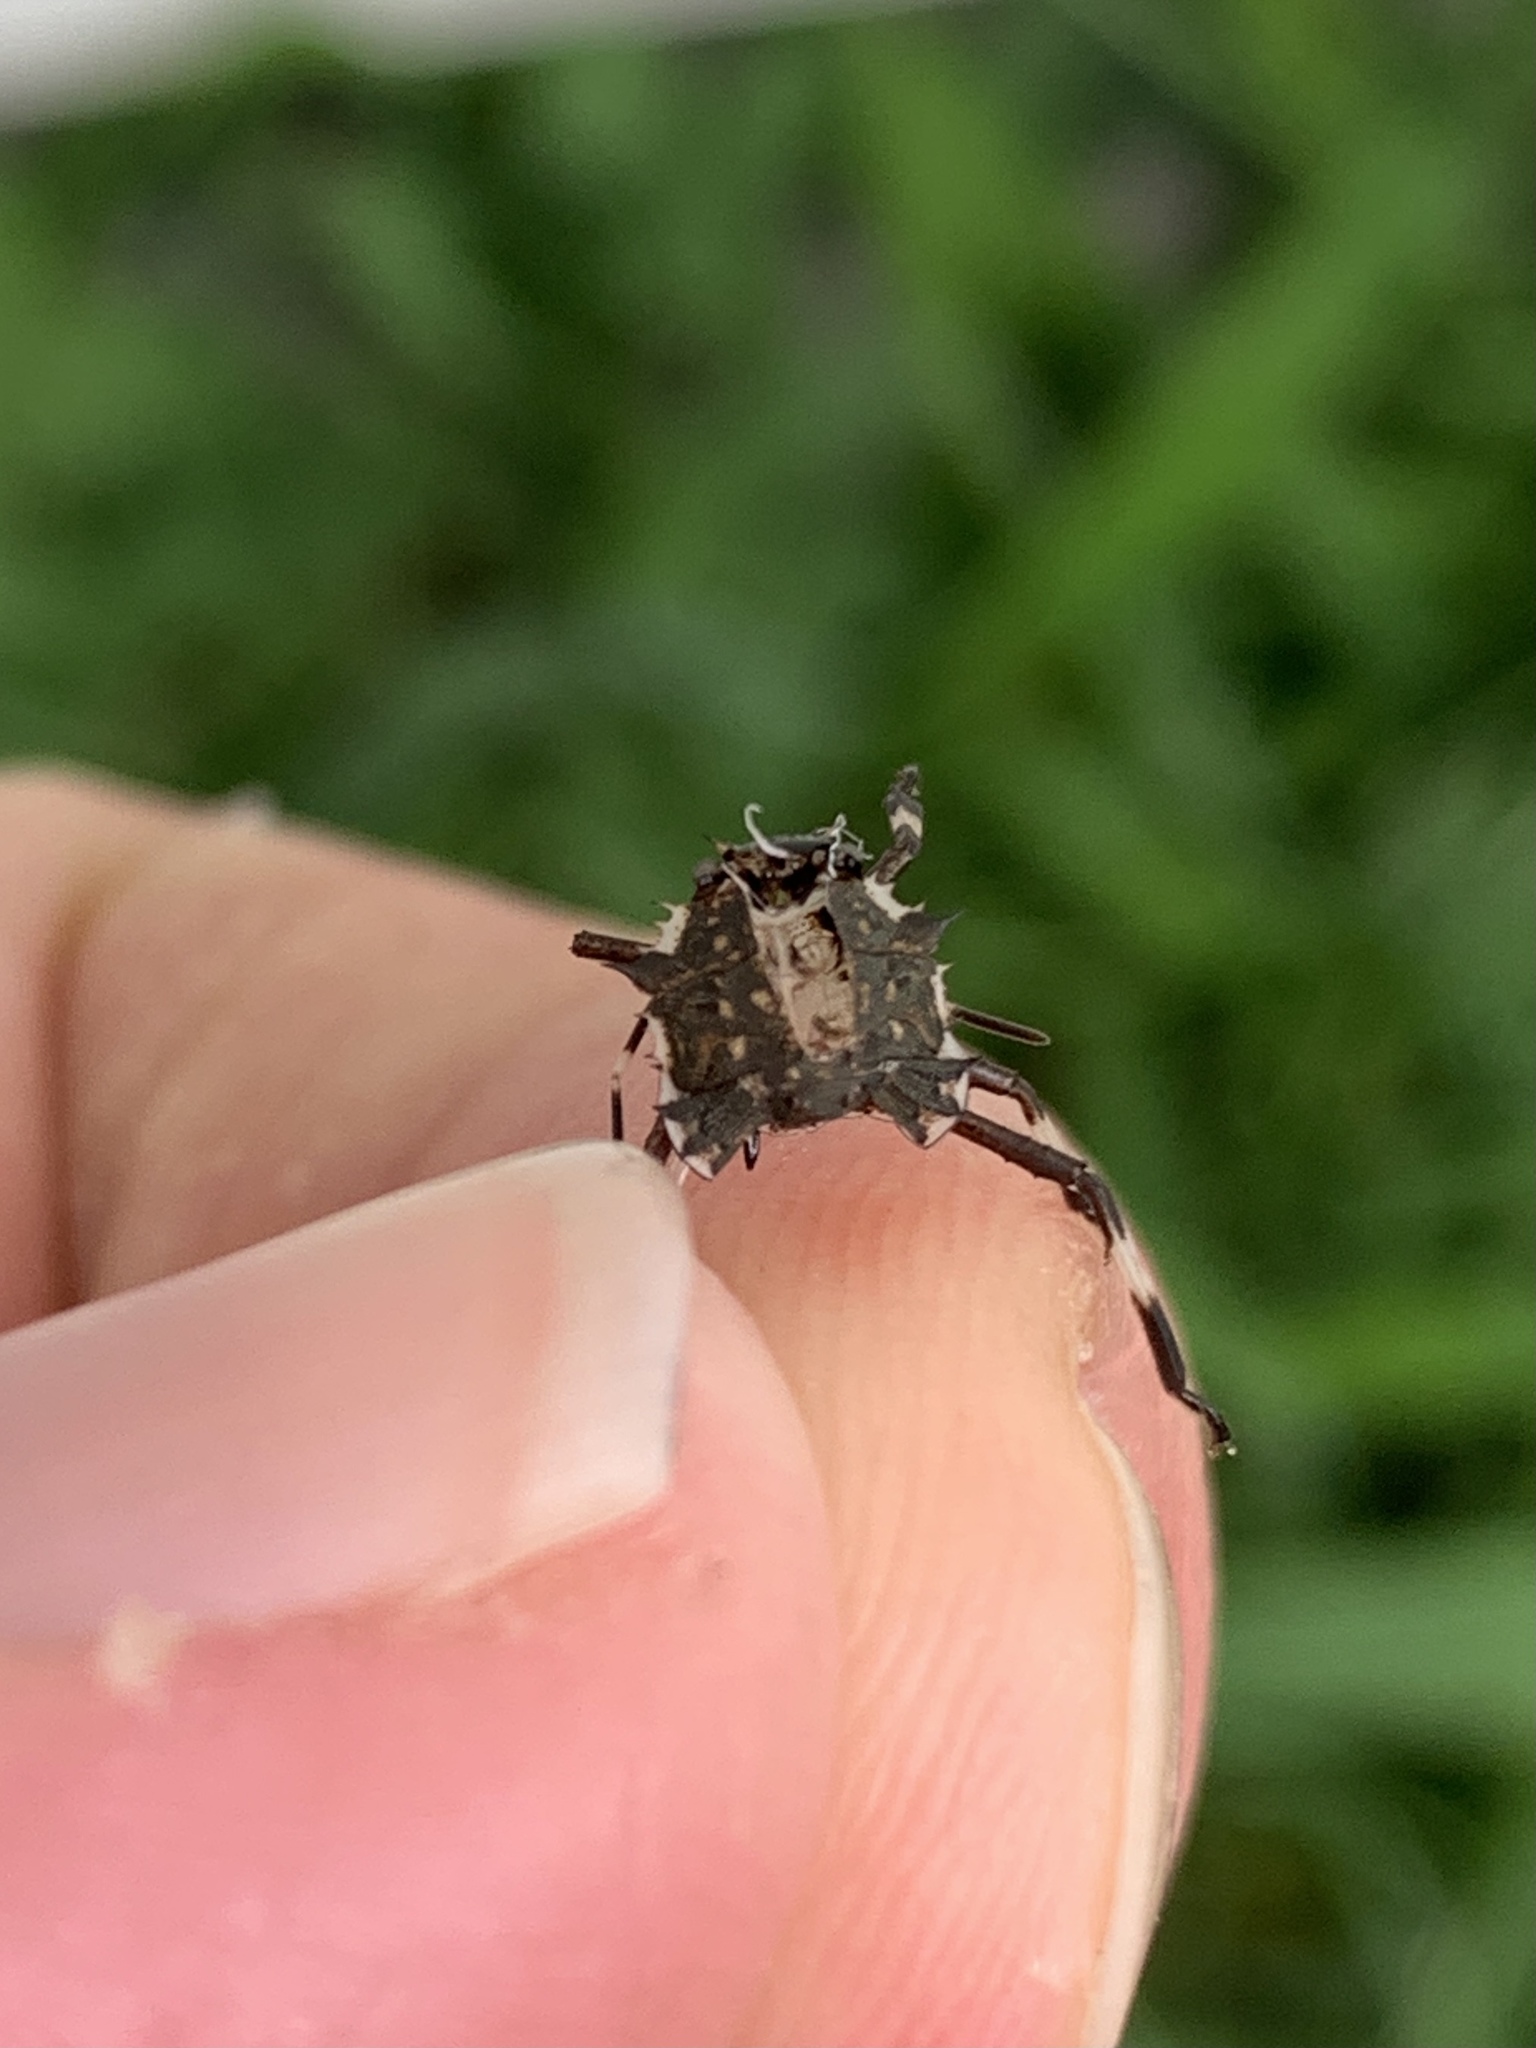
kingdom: Animalia
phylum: Arthropoda
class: Insecta
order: Hemiptera
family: Pentatomidae
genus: Halyomorpha
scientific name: Halyomorpha halys
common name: Brown marmorated stink bug
